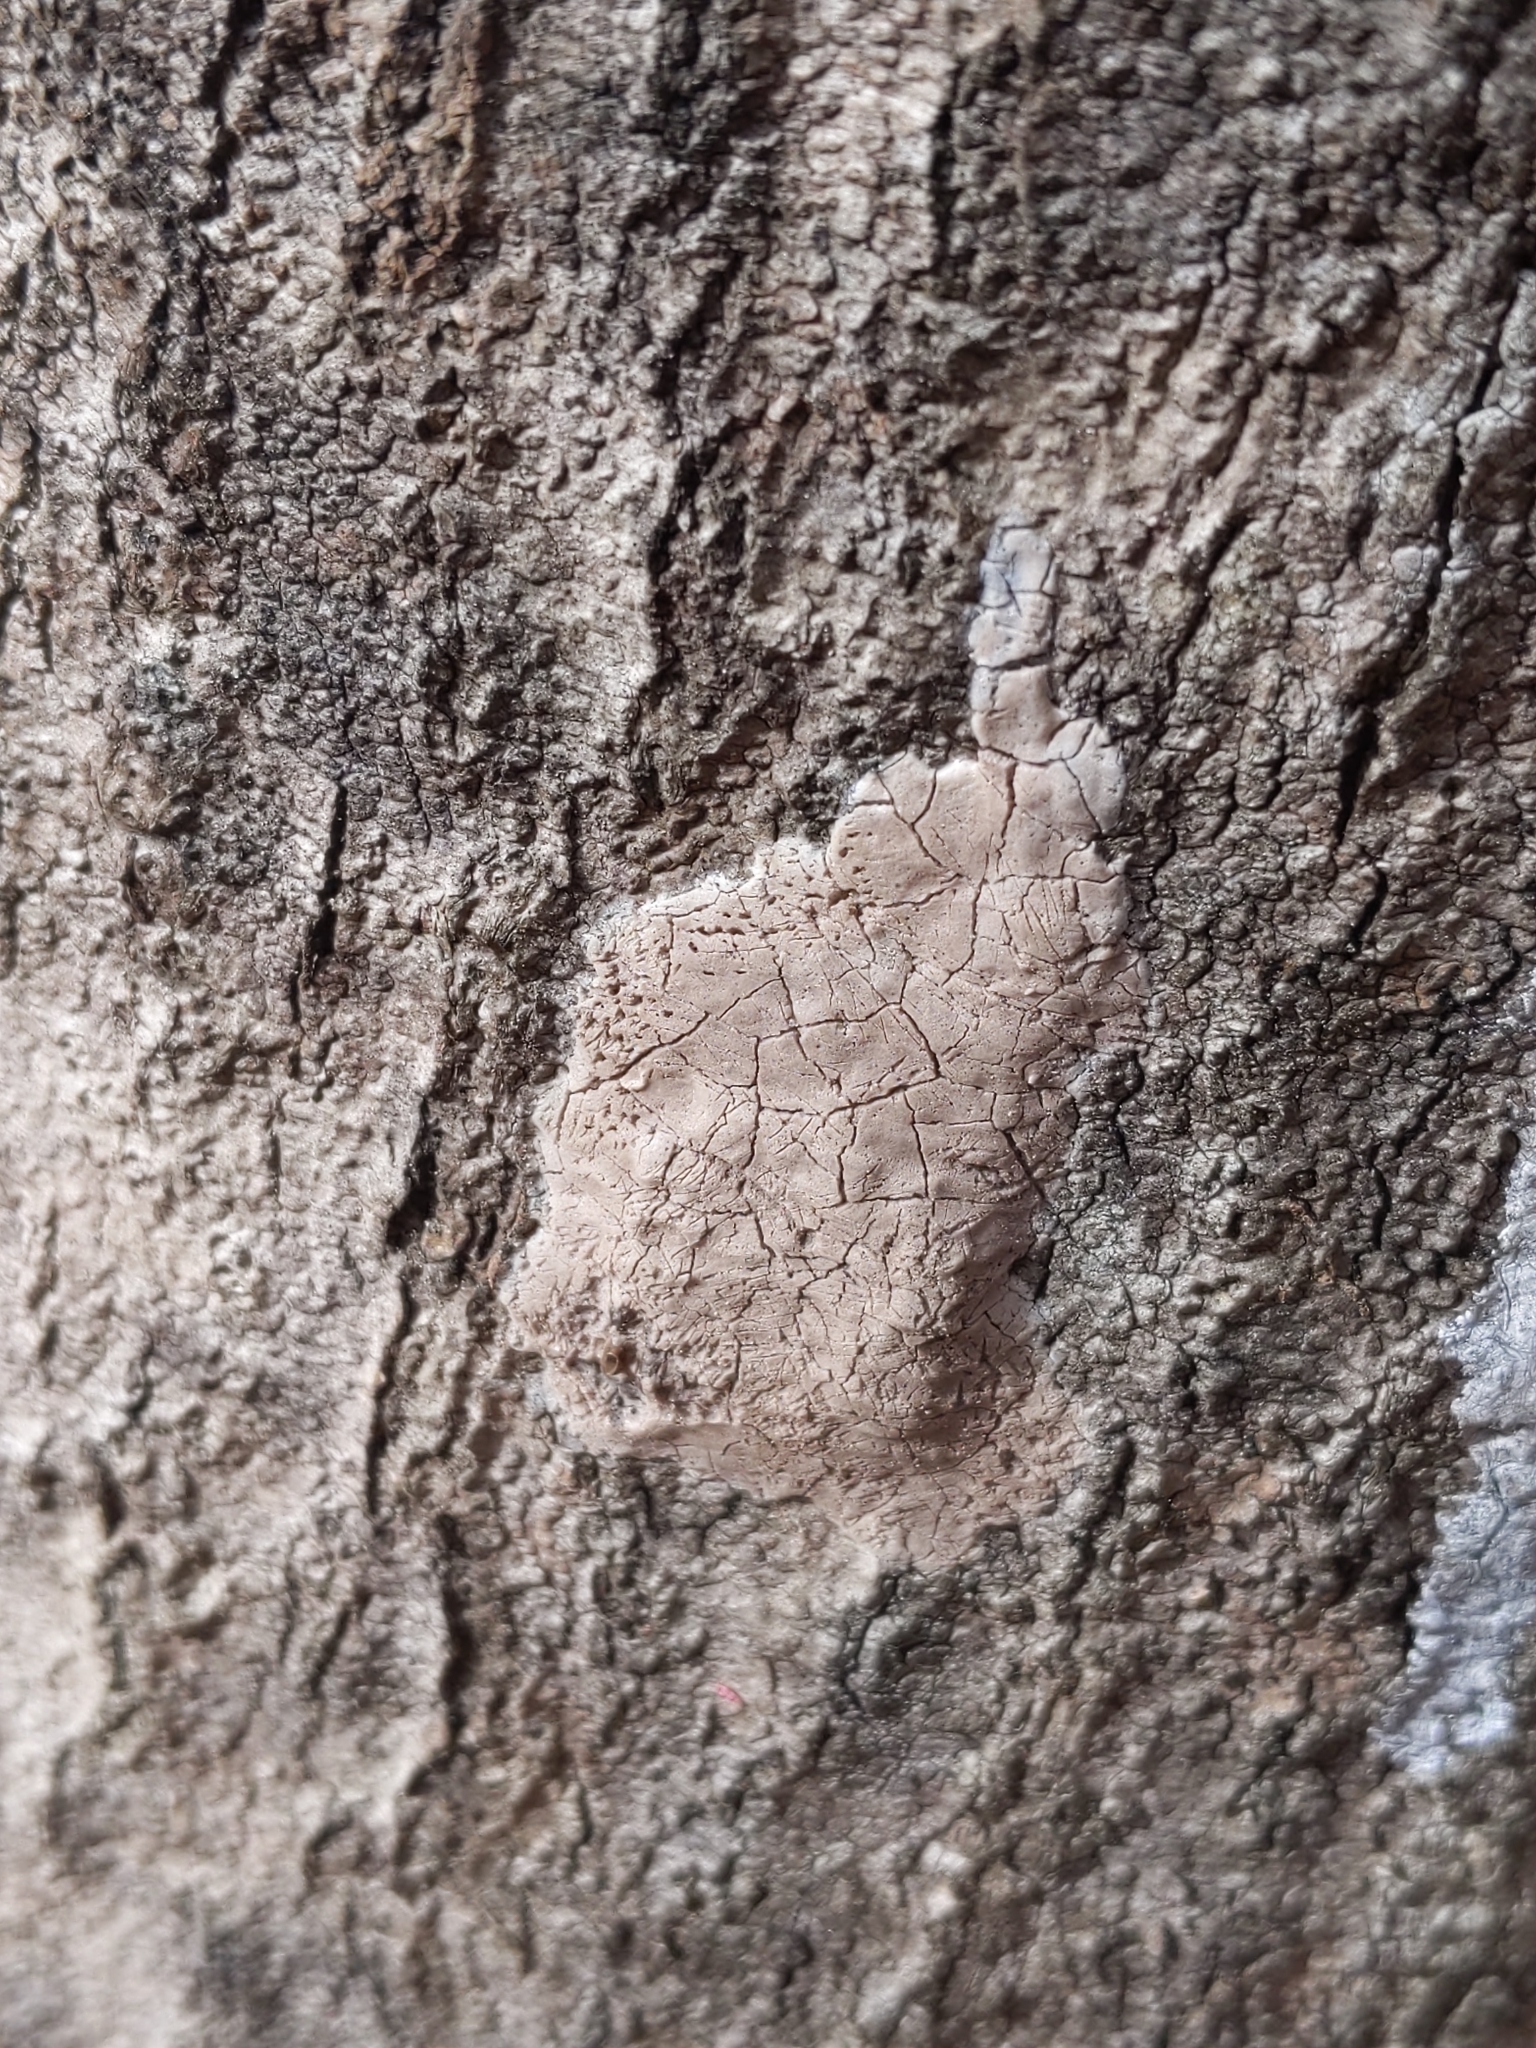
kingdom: Animalia
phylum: Arthropoda
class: Insecta
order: Hemiptera
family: Fulgoridae
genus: Lycorma
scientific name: Lycorma delicatula
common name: Spotted lanternfly
